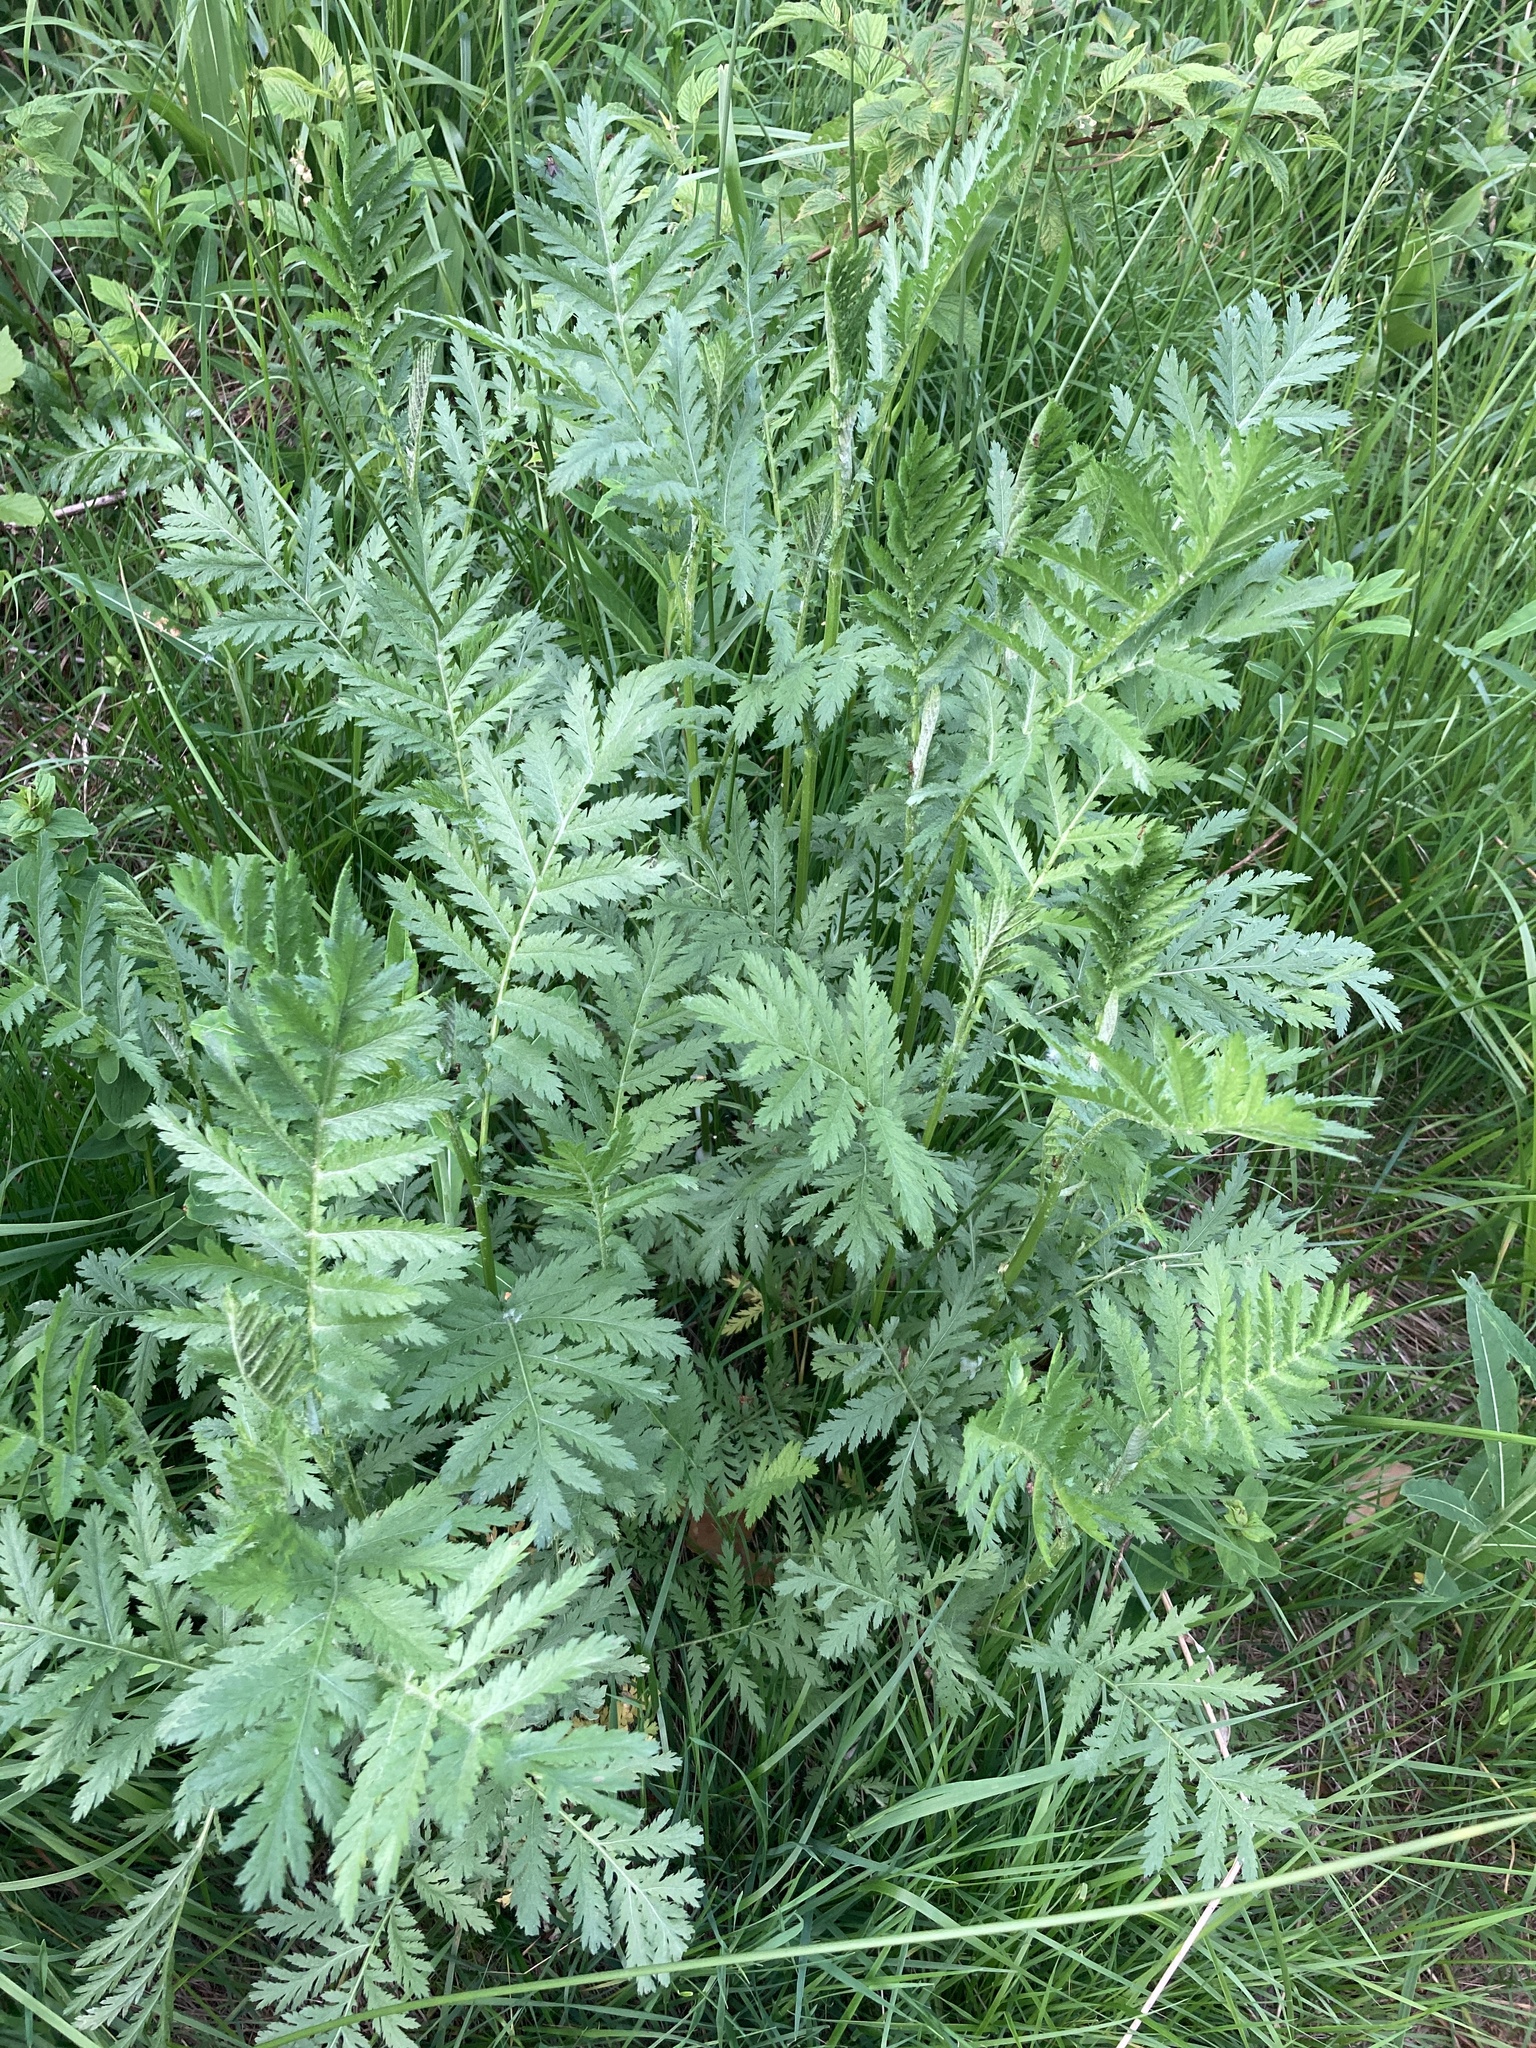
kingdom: Plantae
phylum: Tracheophyta
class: Magnoliopsida
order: Asterales
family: Asteraceae
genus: Tanacetum
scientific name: Tanacetum vulgare
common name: Common tansy
